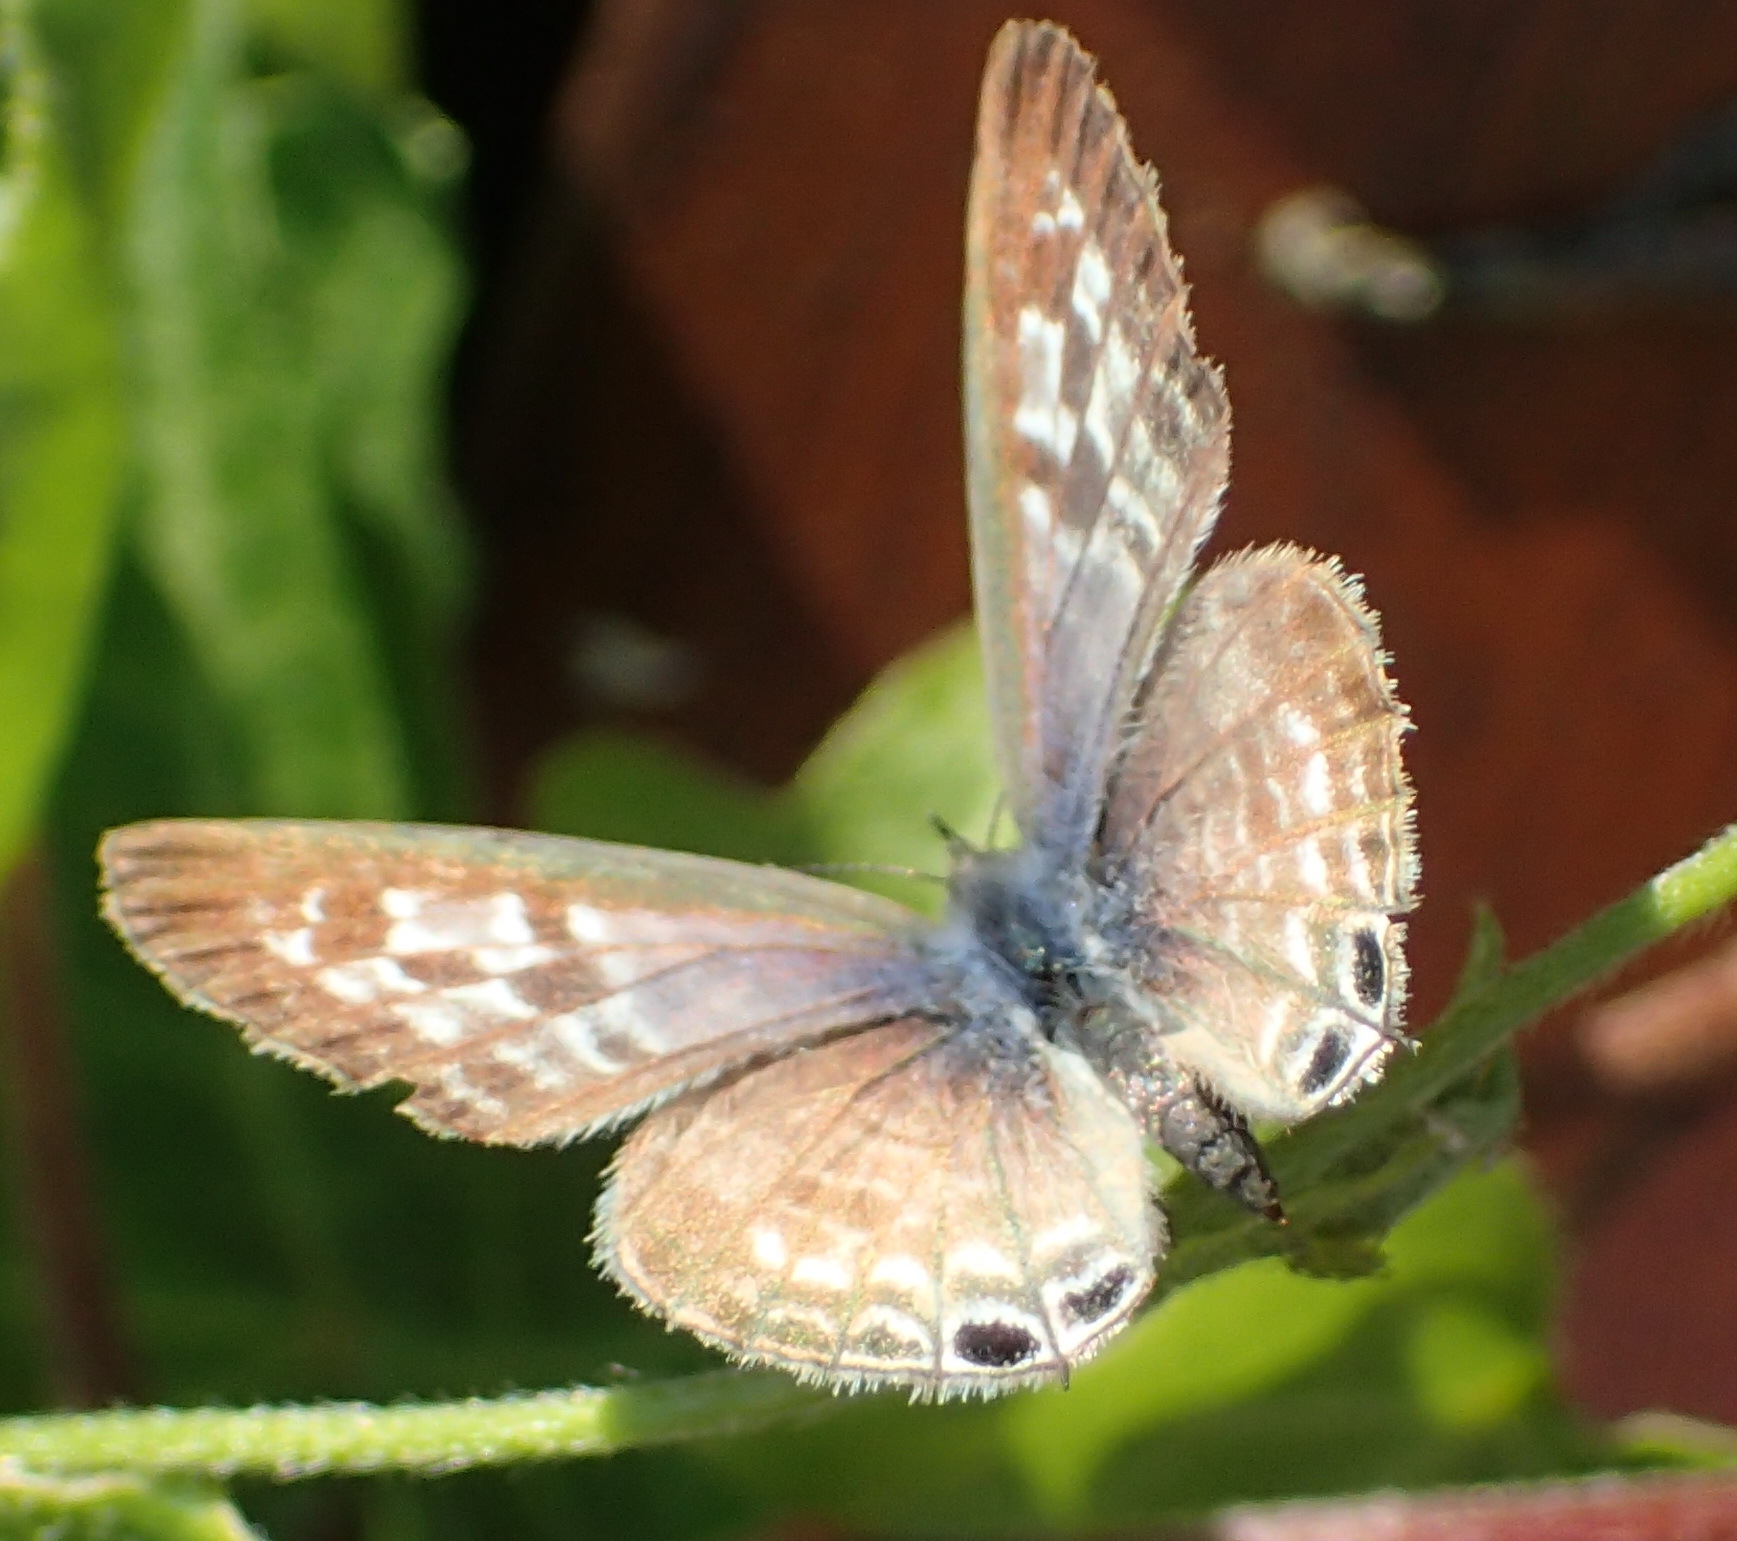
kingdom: Animalia
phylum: Arthropoda
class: Insecta
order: Lepidoptera
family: Lycaenidae
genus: Leptotes
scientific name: Leptotes
